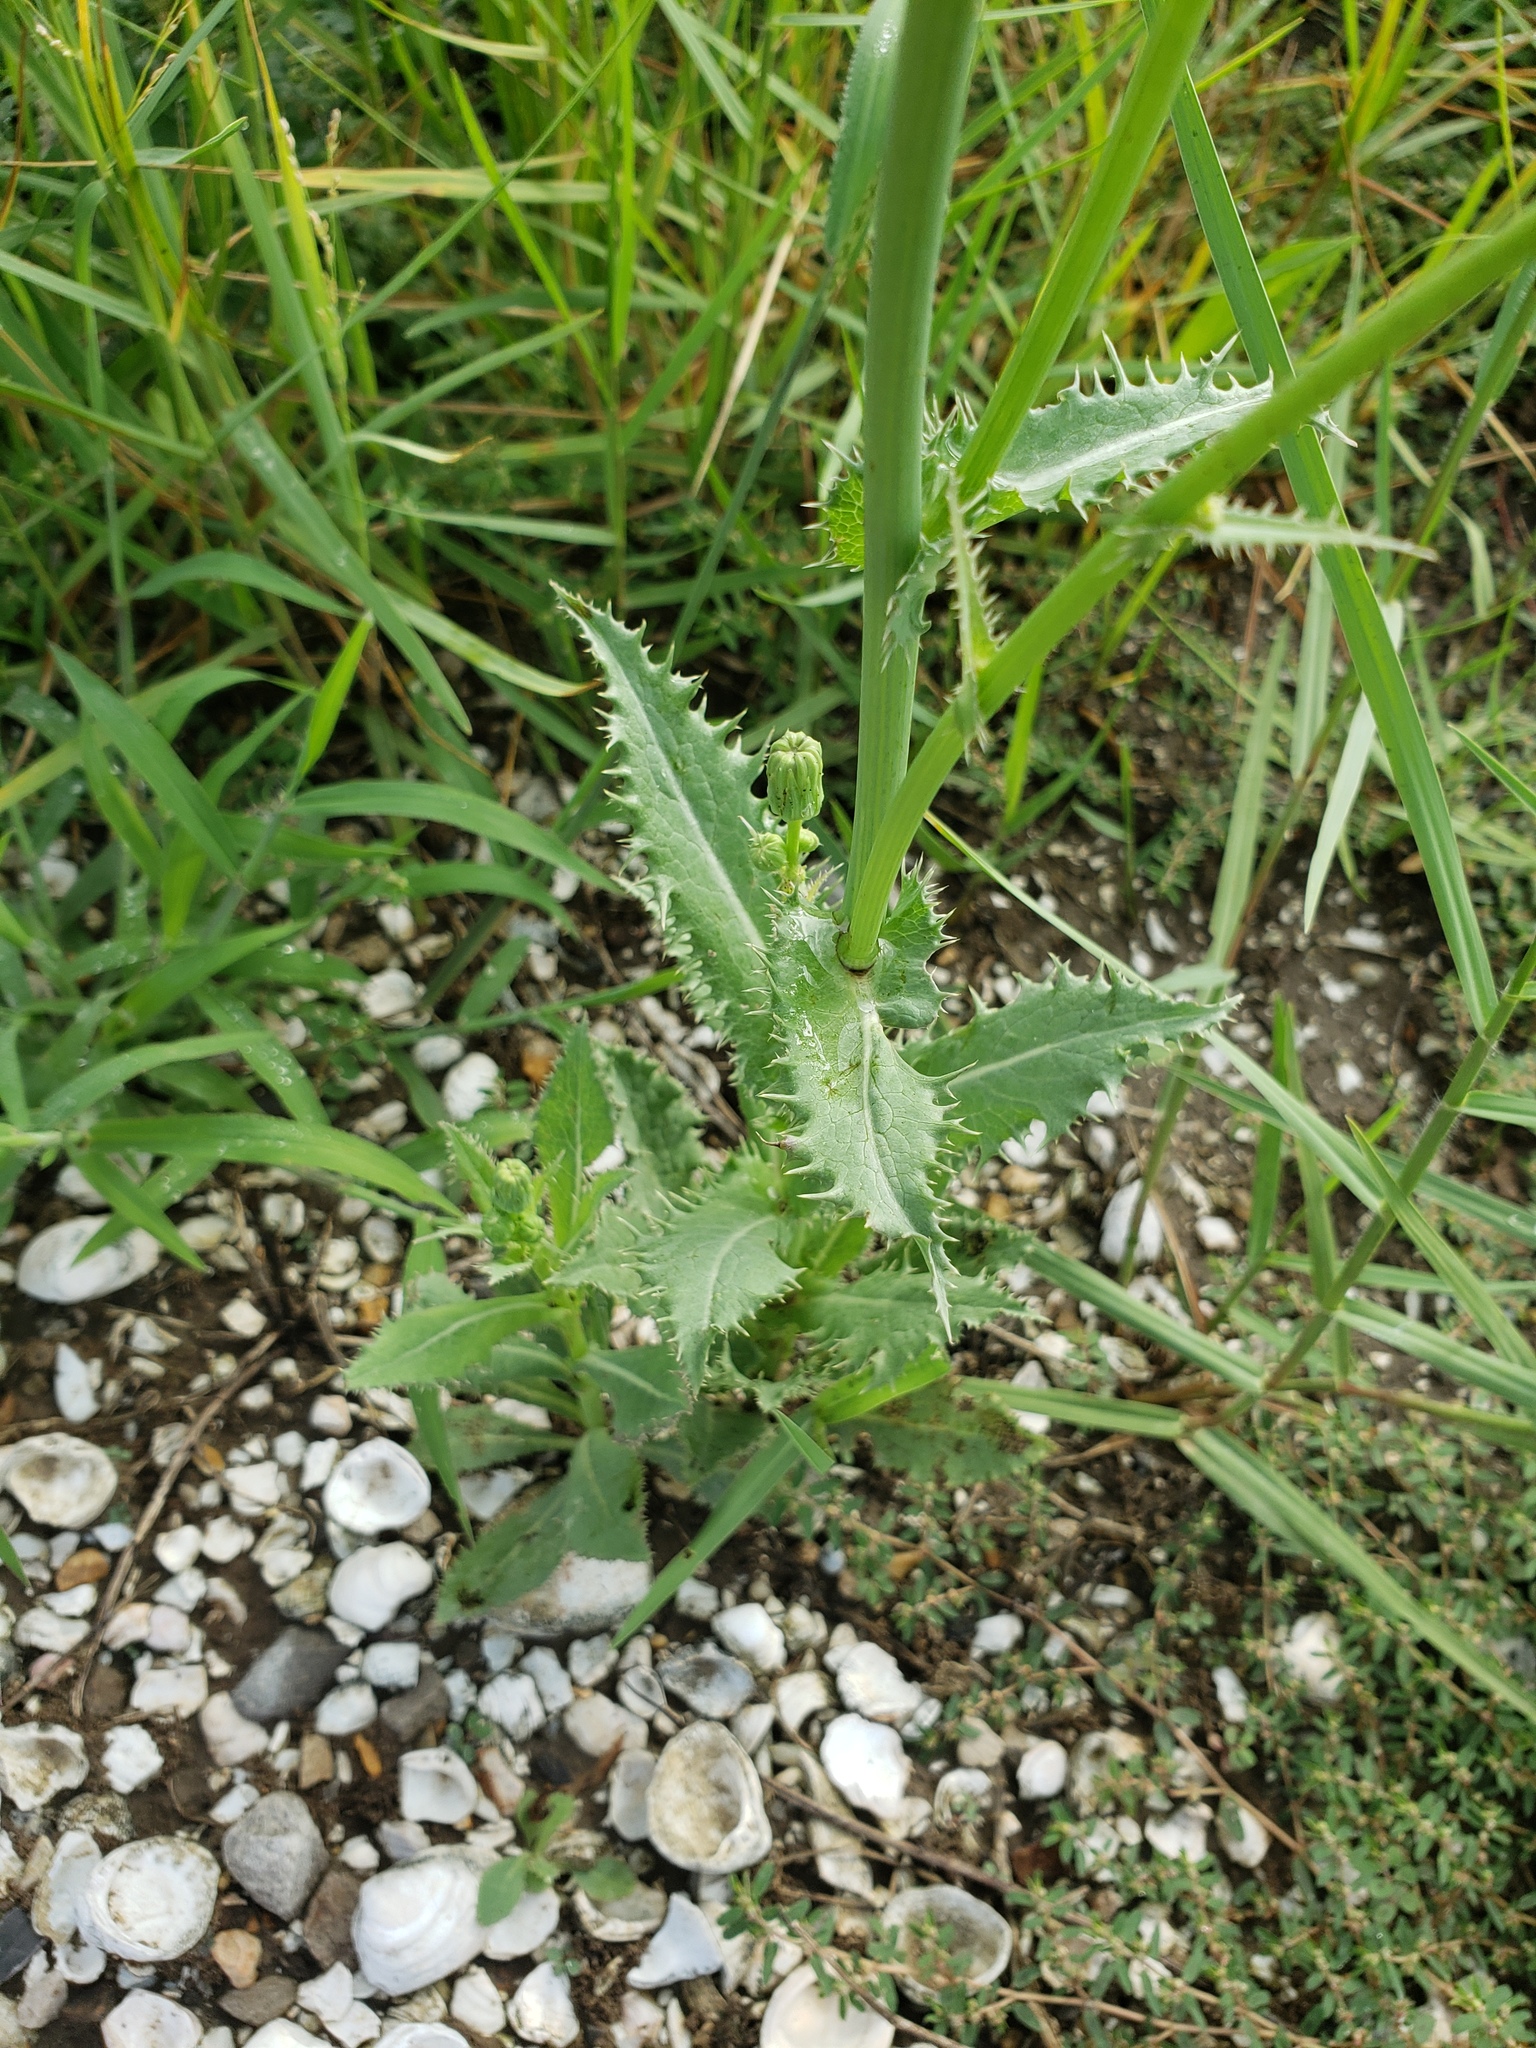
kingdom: Plantae
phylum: Tracheophyta
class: Magnoliopsida
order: Asterales
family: Asteraceae
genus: Sonchus
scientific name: Sonchus asper
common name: Prickly sow-thistle
